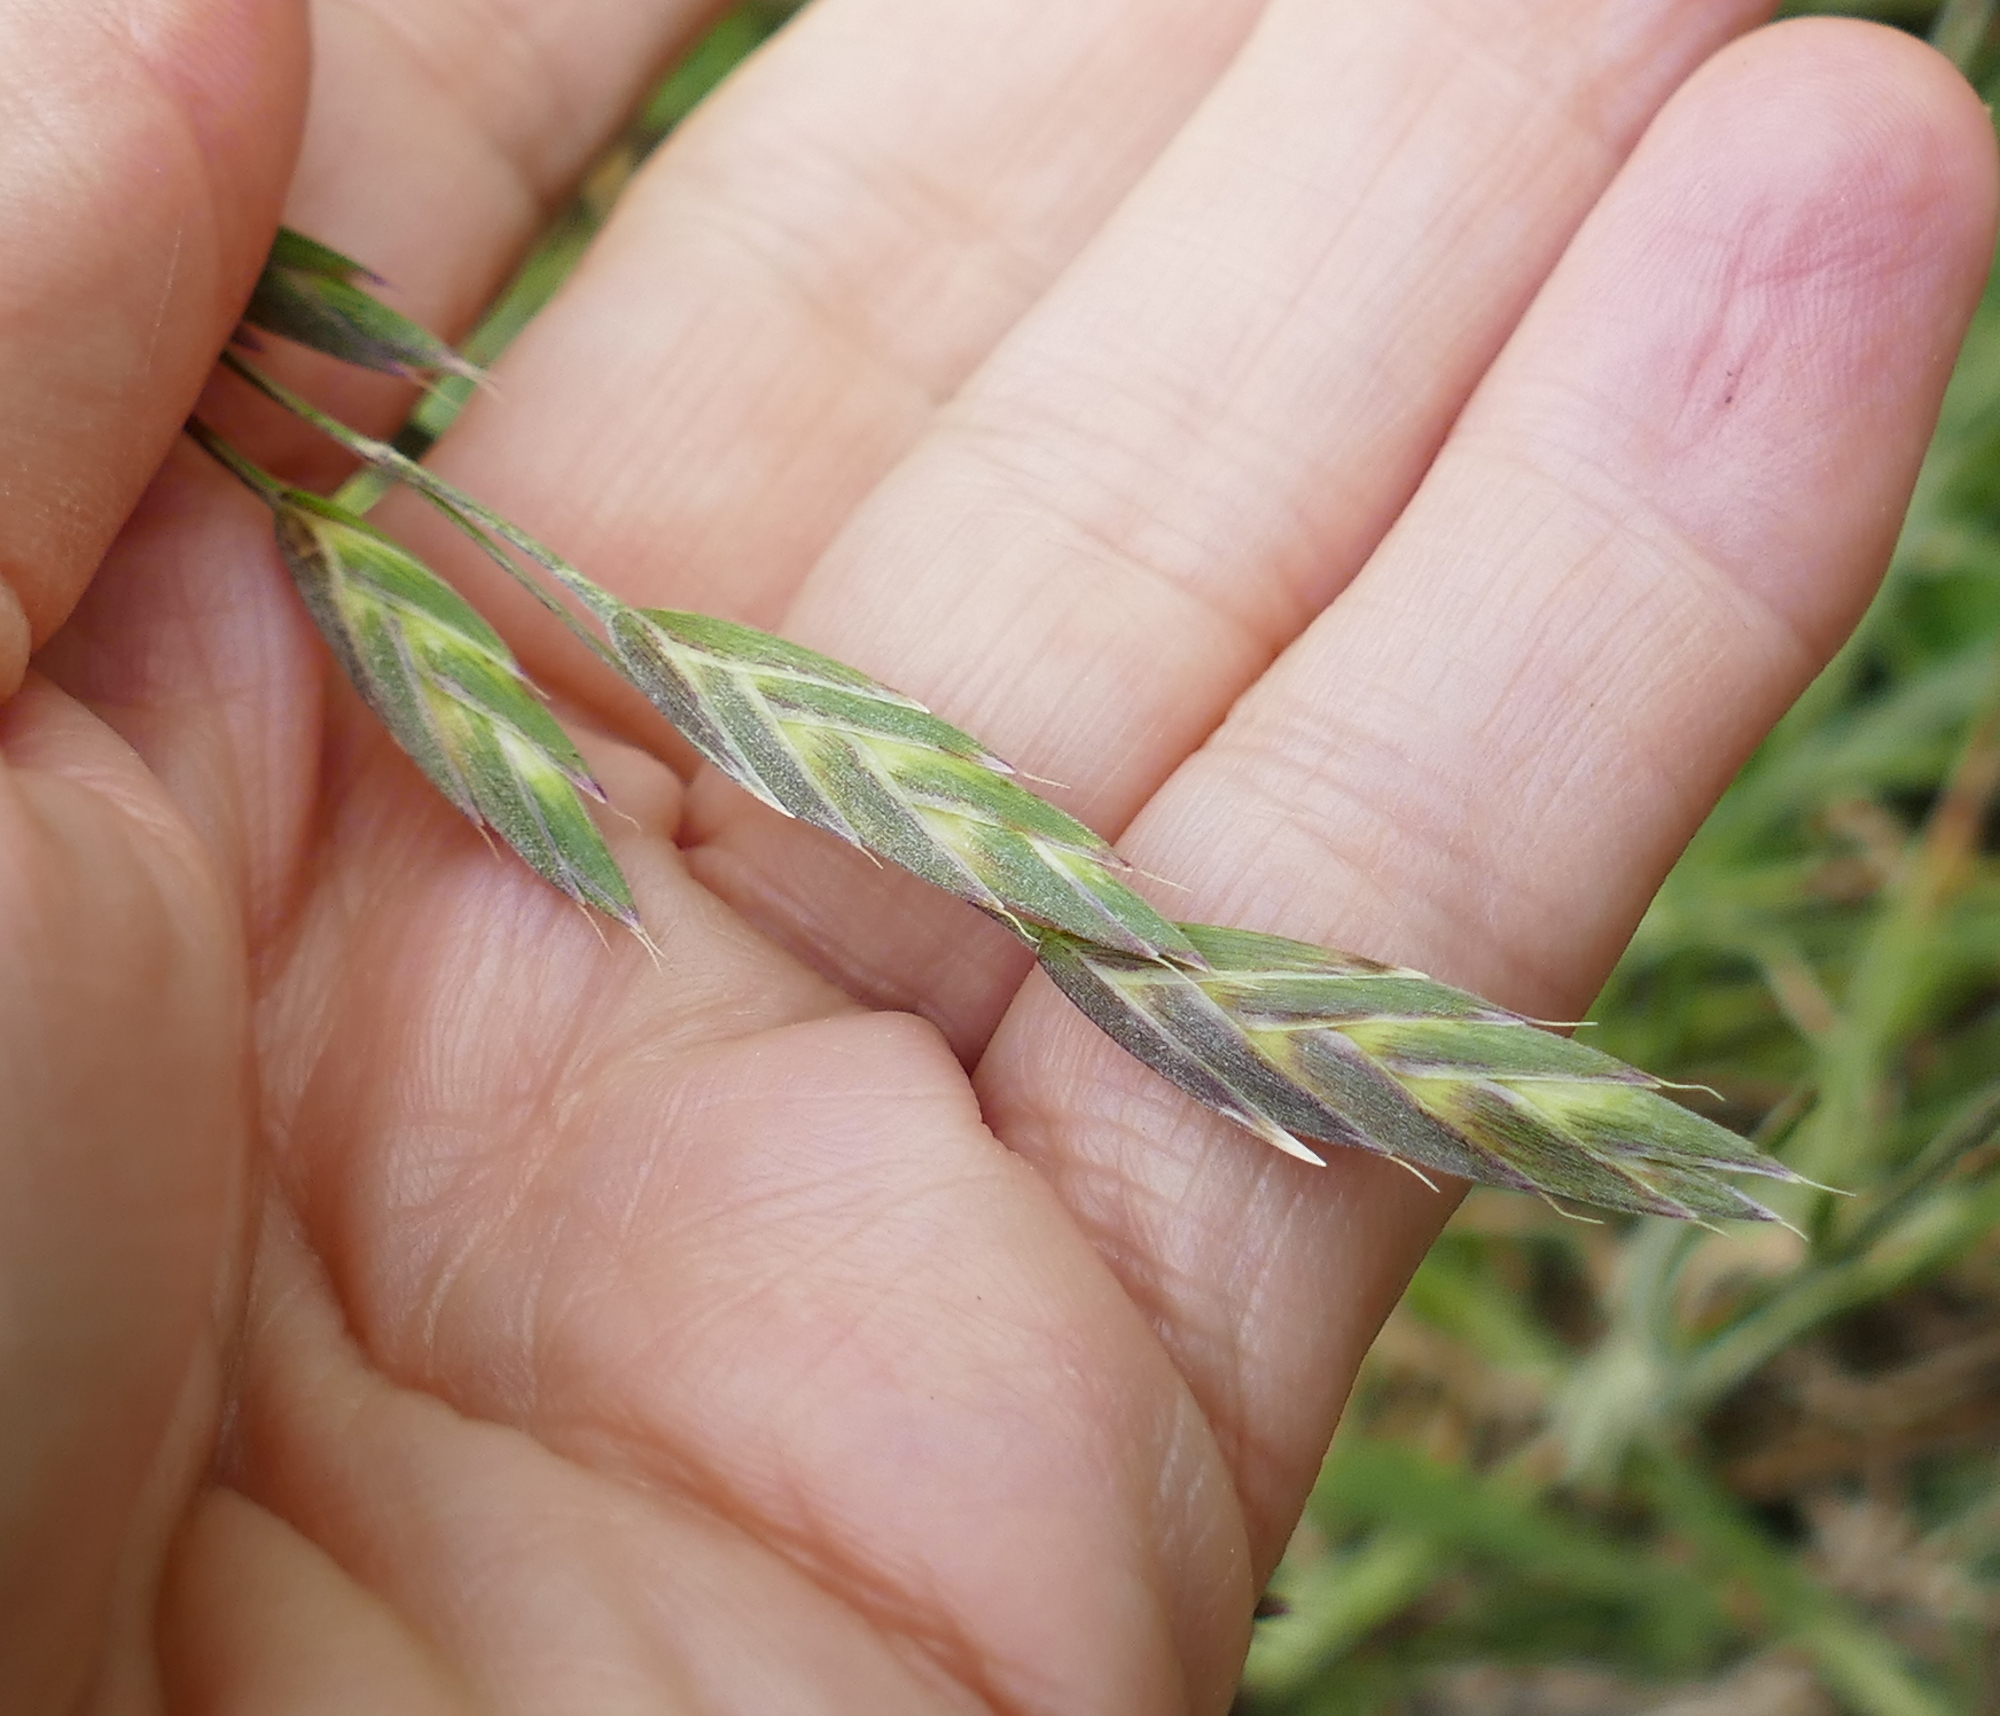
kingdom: Plantae
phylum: Tracheophyta
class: Liliopsida
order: Poales
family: Poaceae
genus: Bromus
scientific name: Bromus catharticus
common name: Rescuegrass
